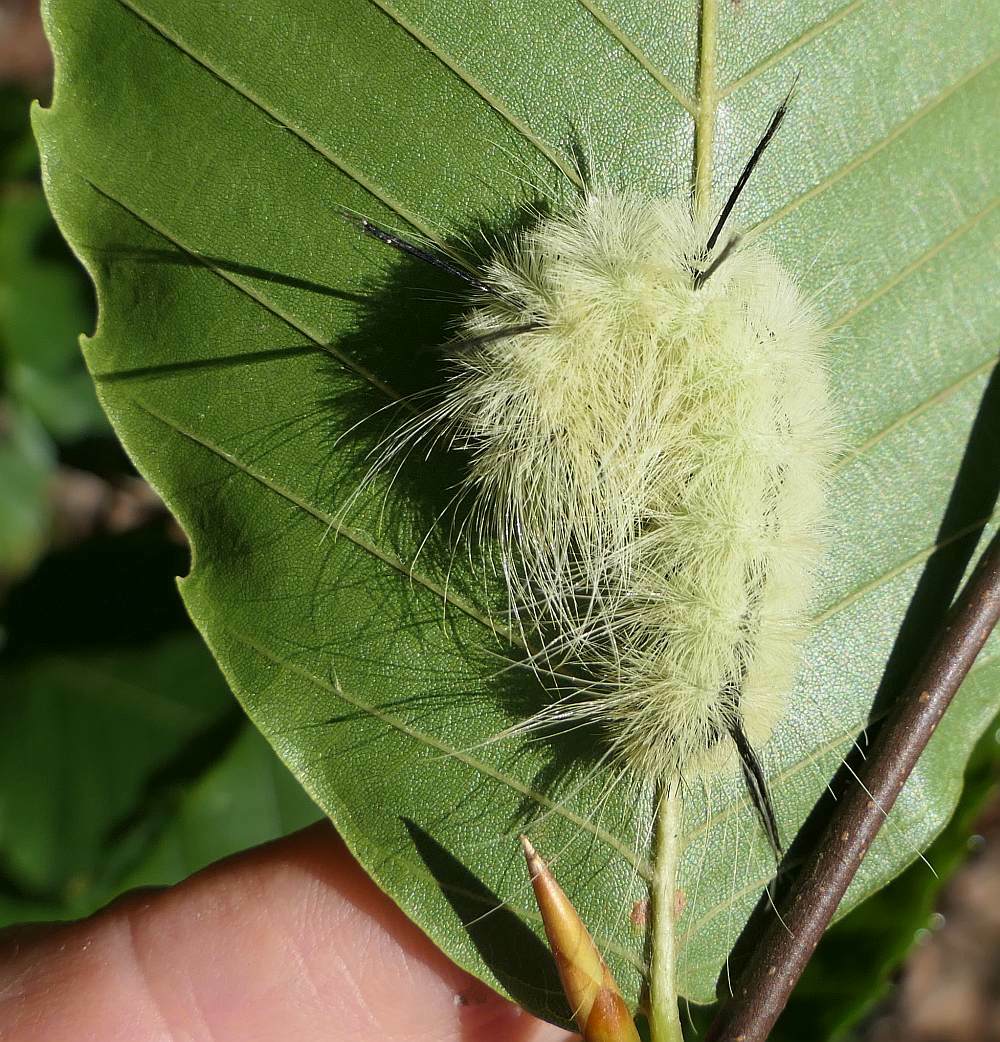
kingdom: Animalia
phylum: Arthropoda
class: Insecta
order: Lepidoptera
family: Noctuidae
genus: Acronicta
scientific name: Acronicta americana
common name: American dagger
